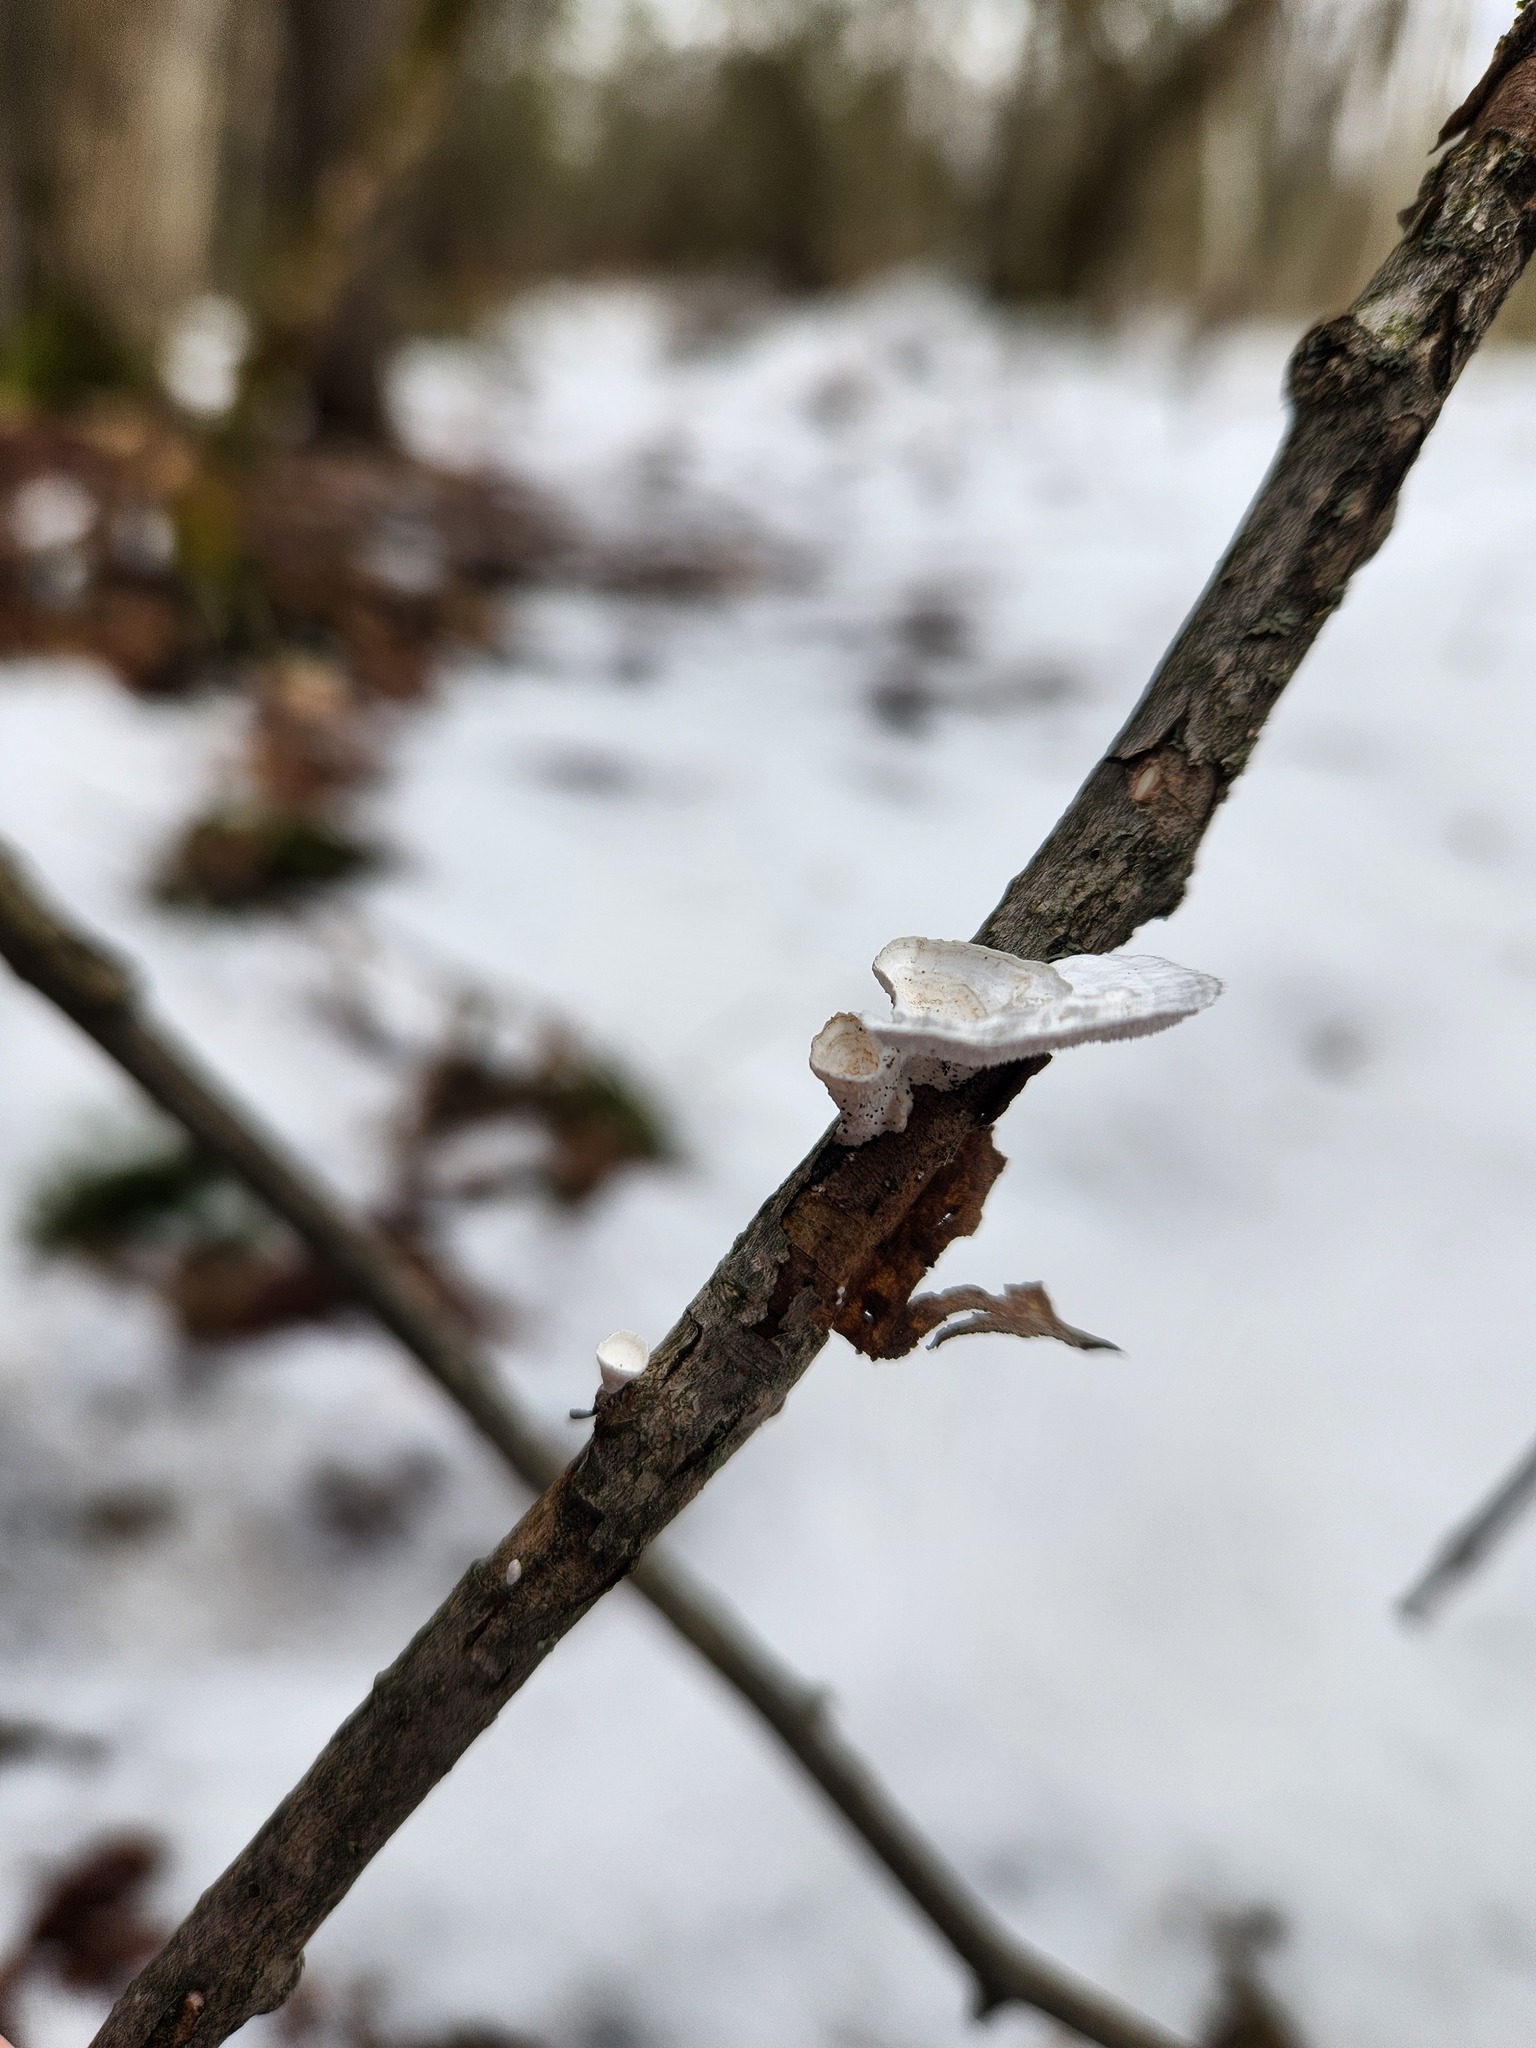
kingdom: Fungi
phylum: Basidiomycota
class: Agaricomycetes
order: Polyporales
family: Polyporaceae
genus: Poronidulus
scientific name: Poronidulus conchifer
